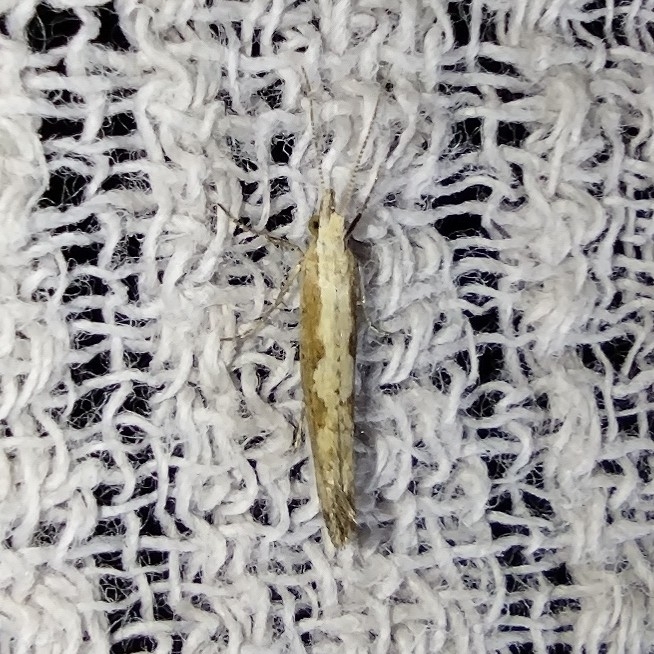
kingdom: Animalia
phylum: Arthropoda
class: Insecta
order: Lepidoptera
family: Plutellidae
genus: Plutella
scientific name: Plutella xylostella
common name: Diamond-back moth
